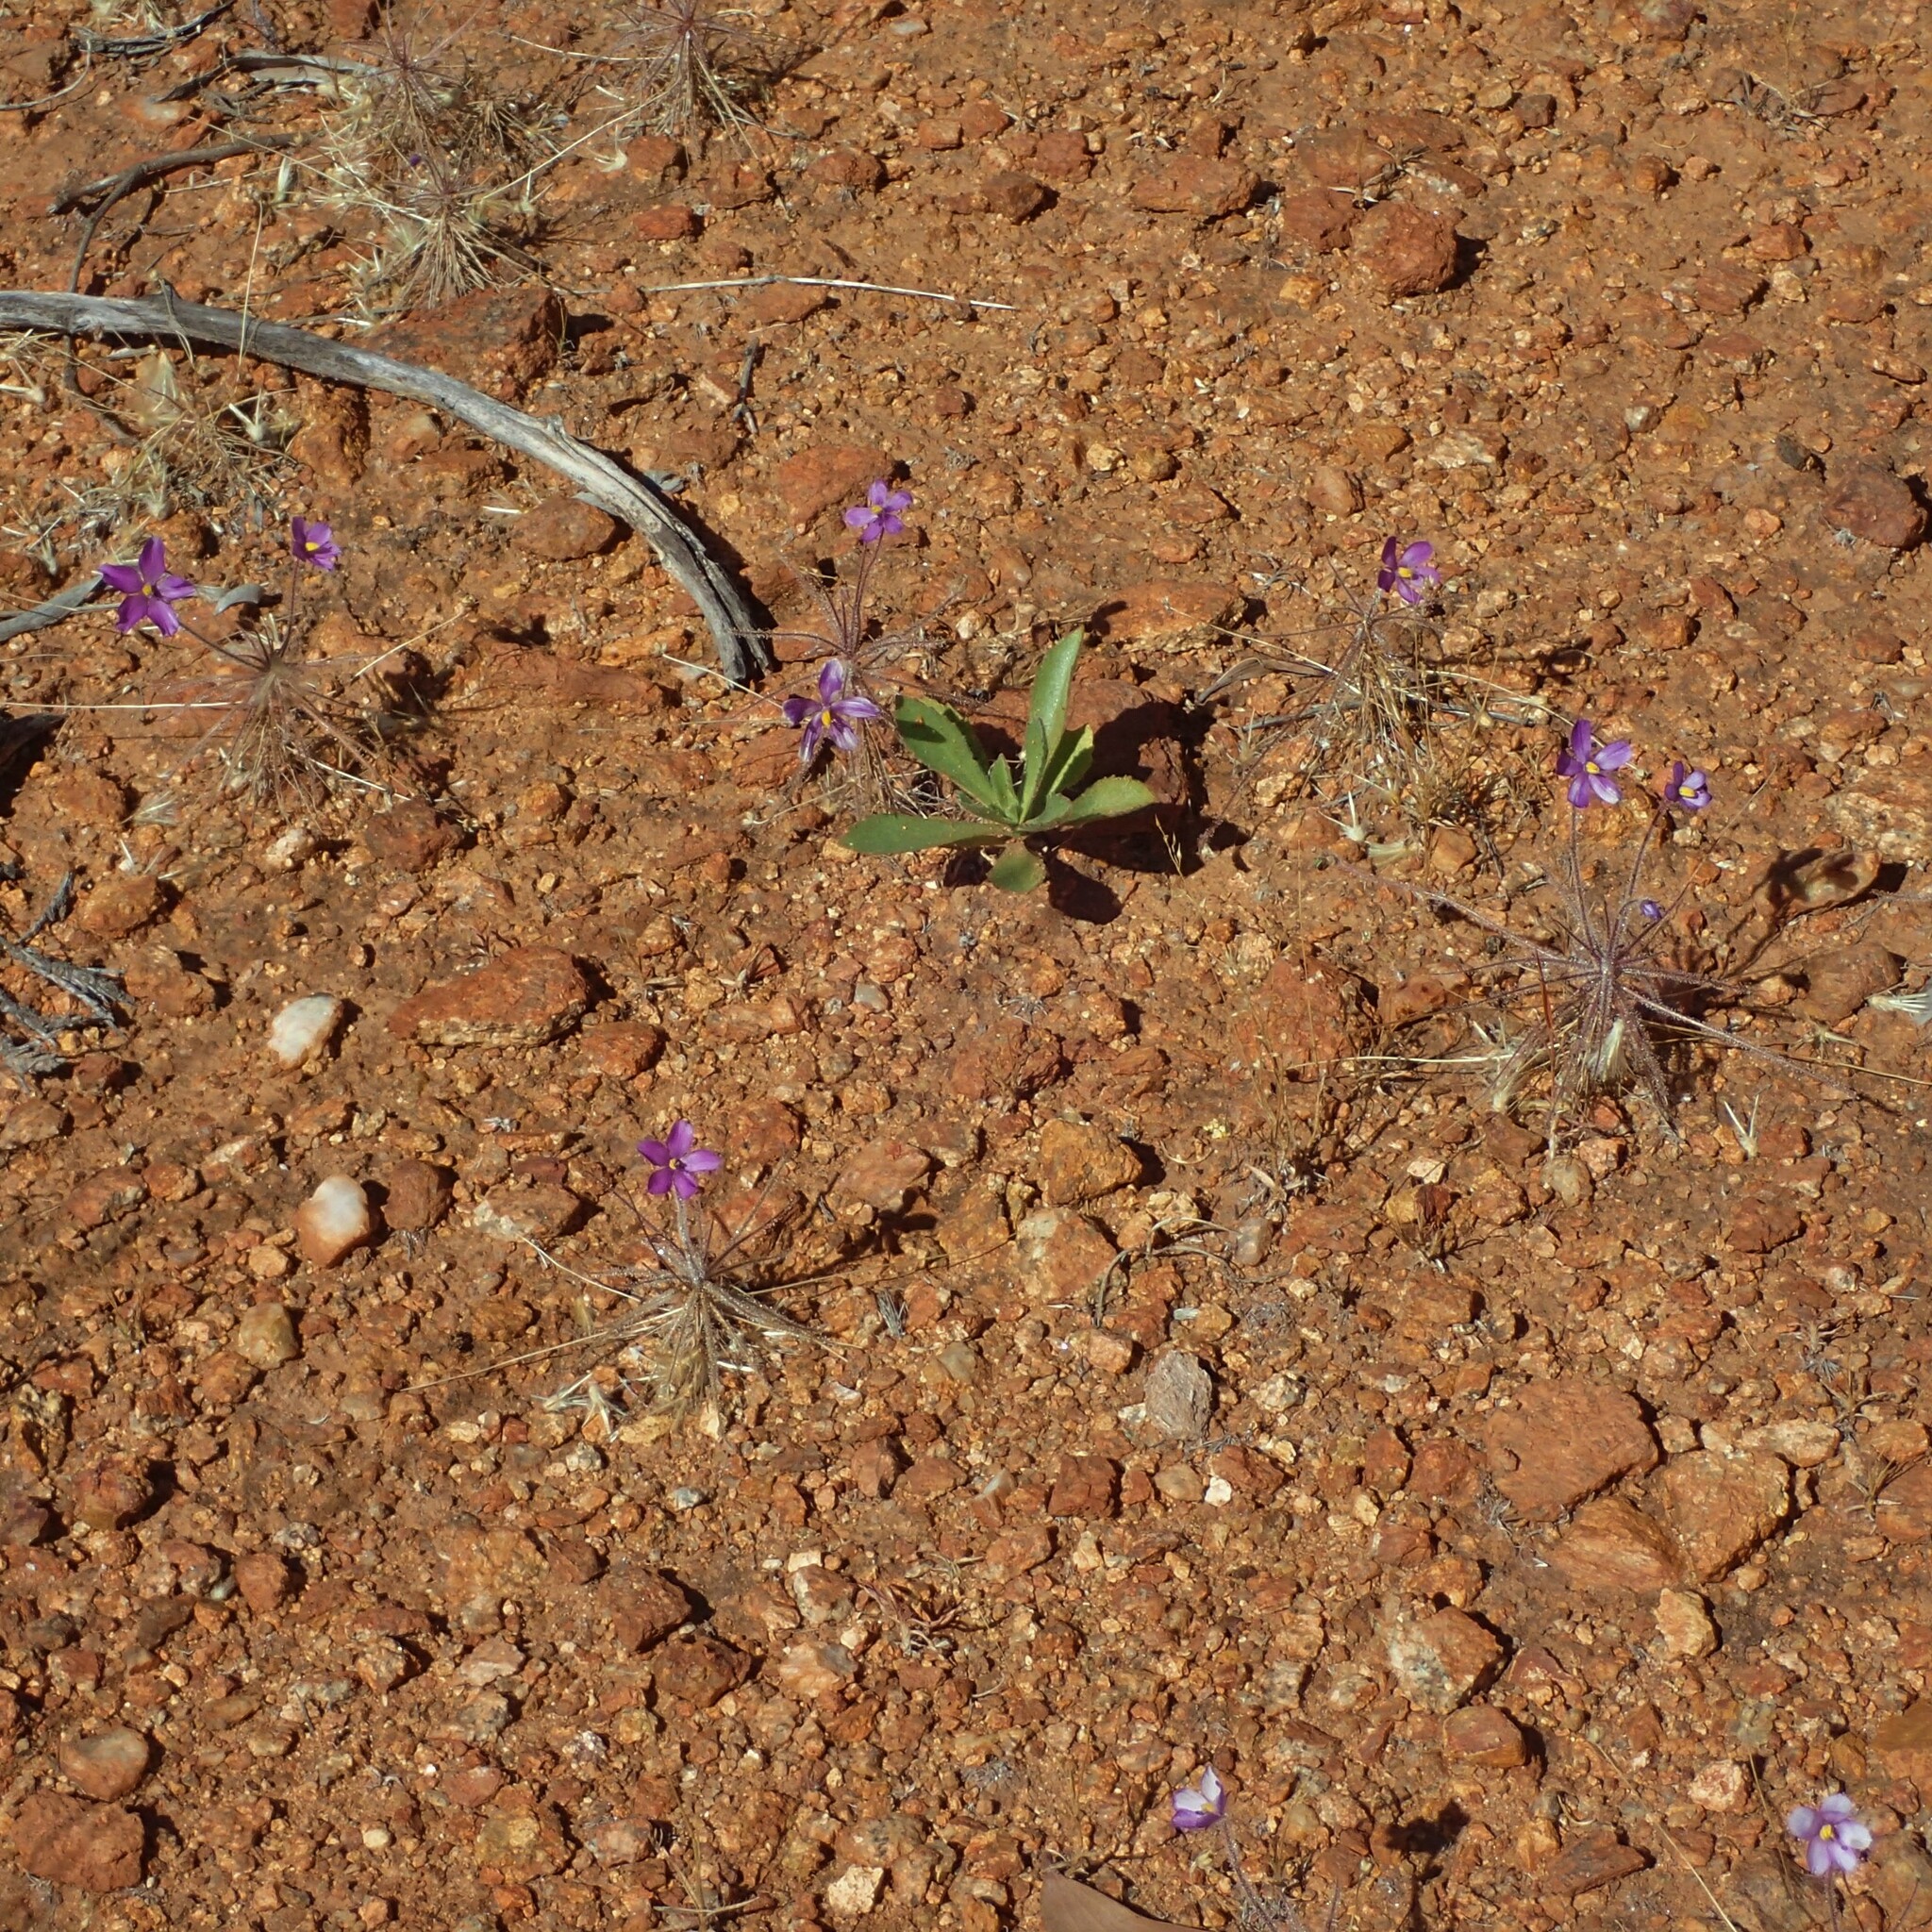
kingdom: Plantae
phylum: Tracheophyta
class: Magnoliopsida
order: Lamiales
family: Byblidaceae
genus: Byblis
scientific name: Byblis pilbarana
